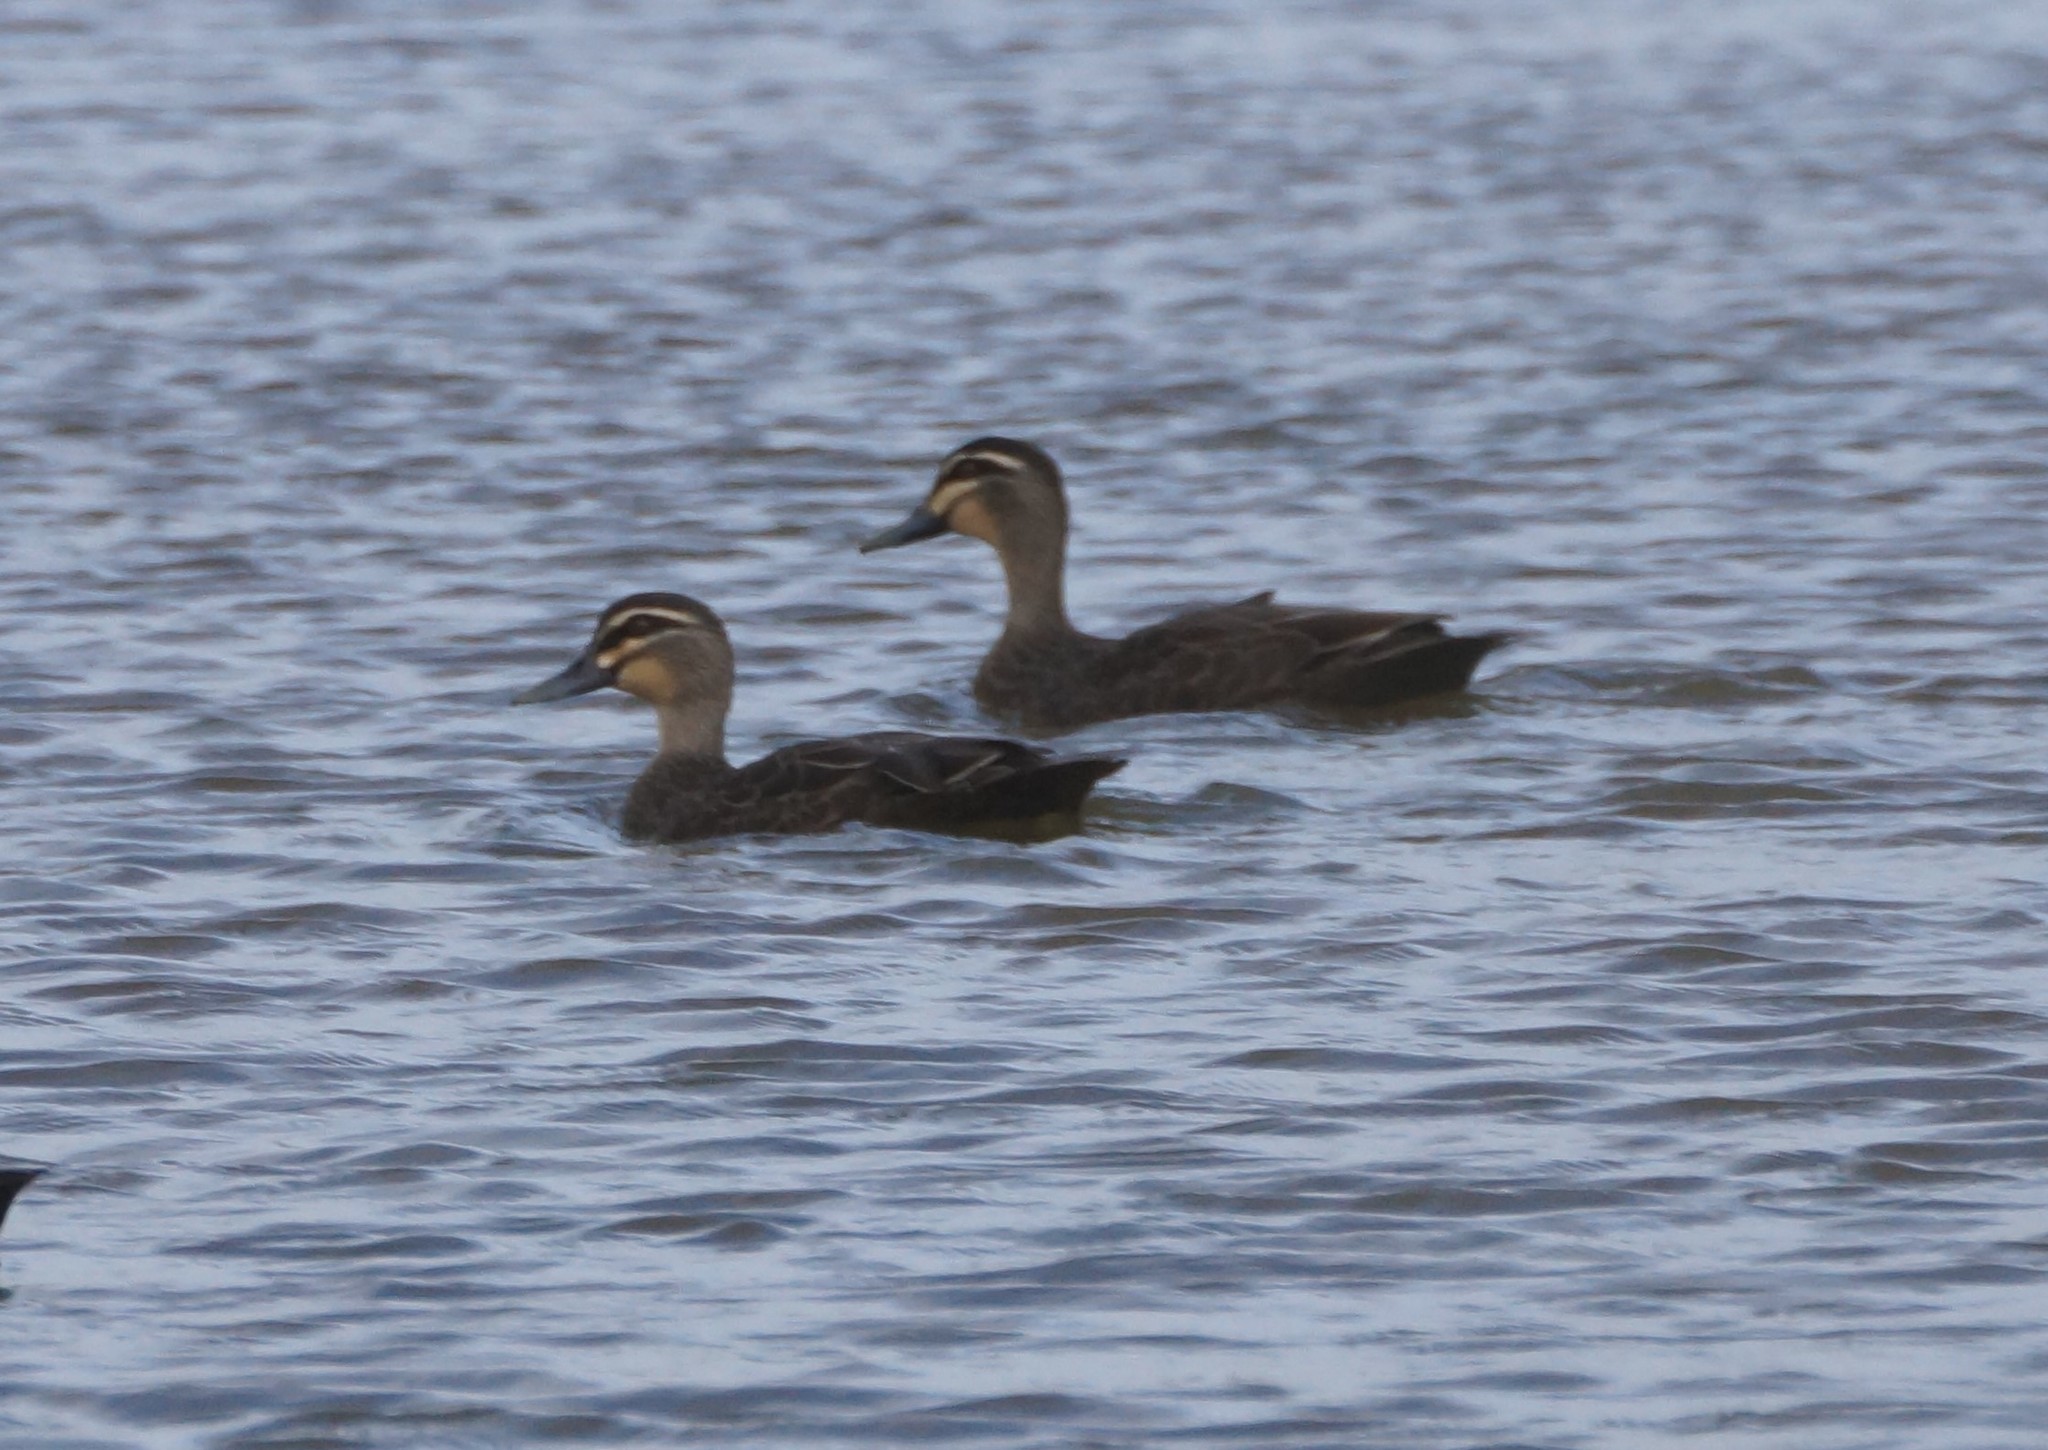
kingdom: Animalia
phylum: Chordata
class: Aves
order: Anseriformes
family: Anatidae
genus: Anas
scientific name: Anas superciliosa
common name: Pacific black duck
